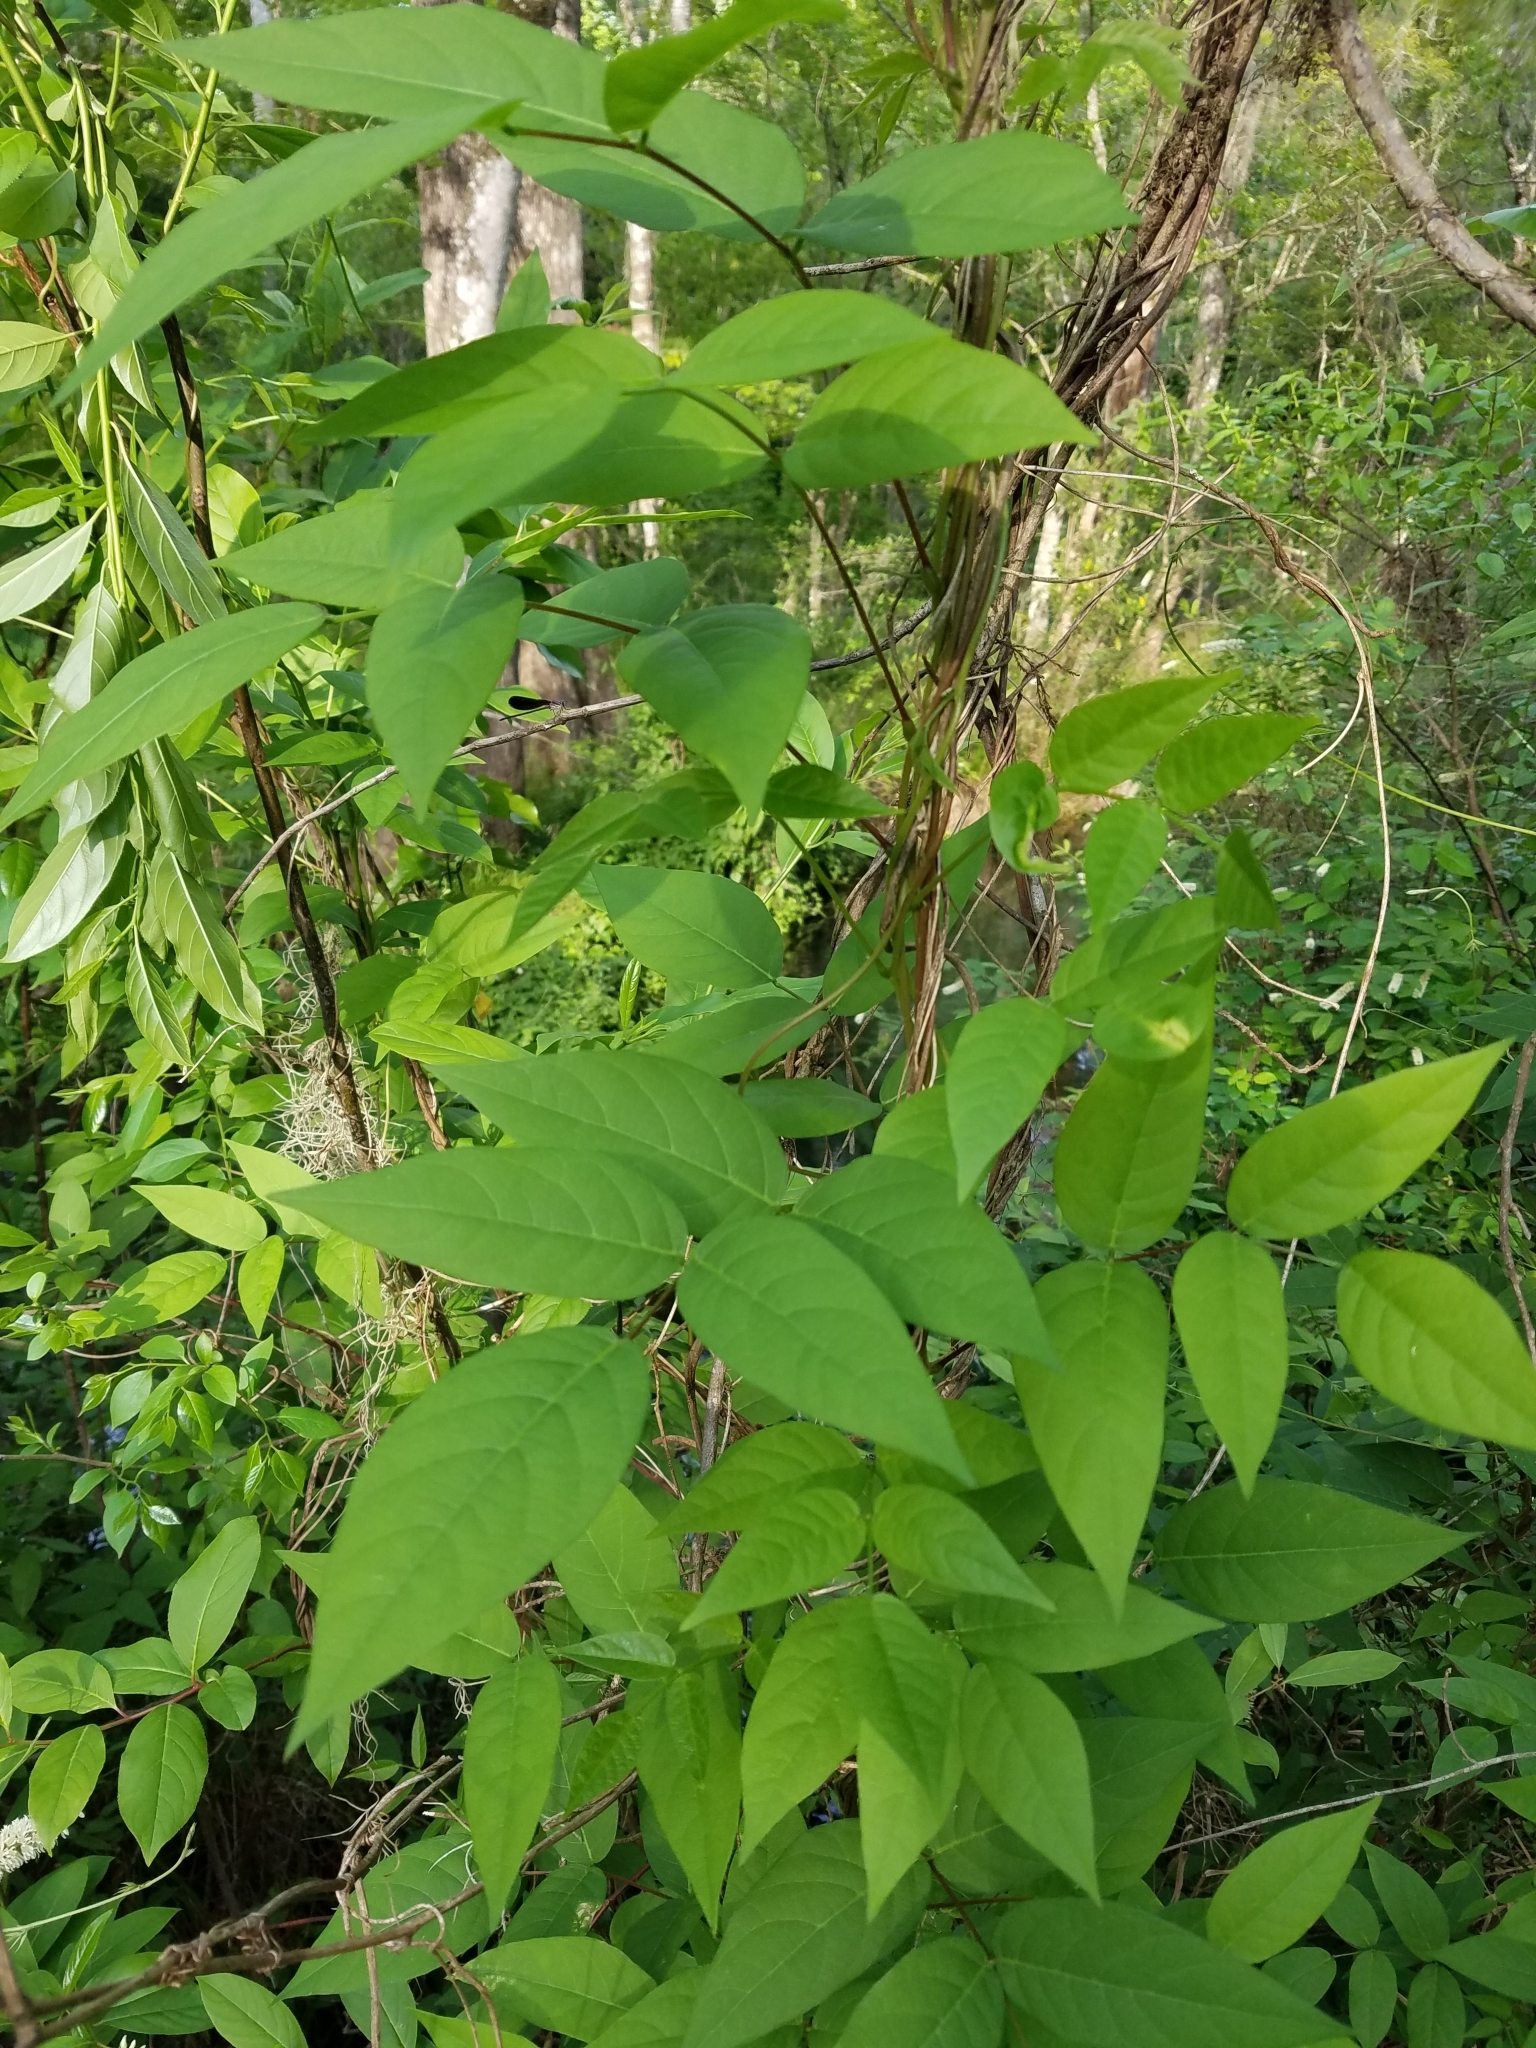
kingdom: Plantae
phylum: Tracheophyta
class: Magnoliopsida
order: Fabales
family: Fabaceae
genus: Apios
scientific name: Apios americana
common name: American potato-bean
